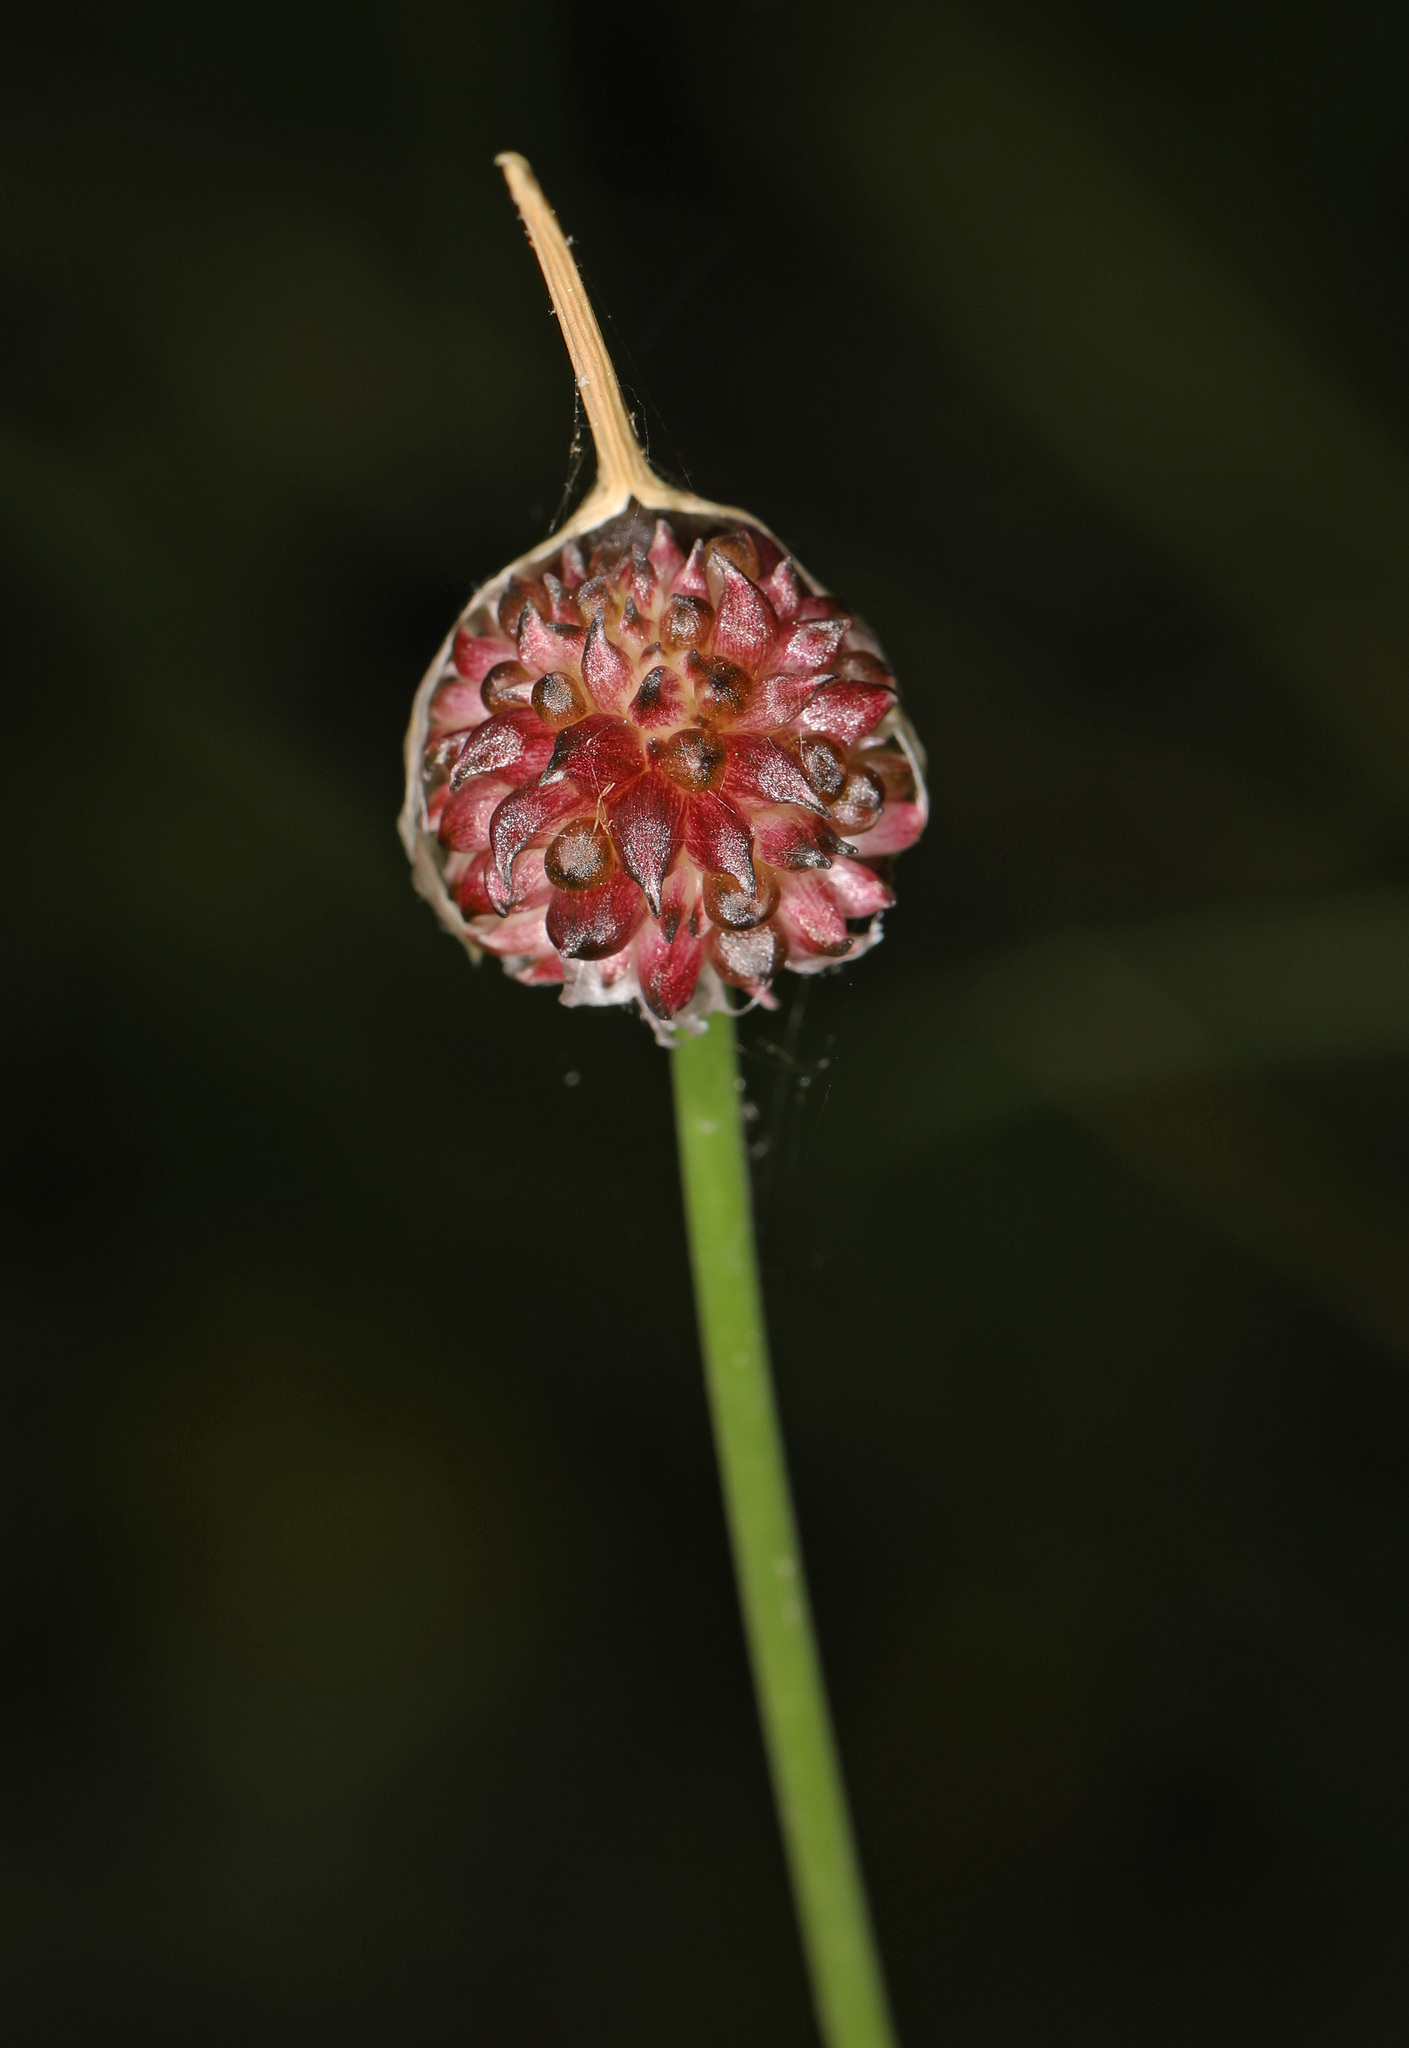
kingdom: Plantae
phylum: Tracheophyta
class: Liliopsida
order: Asparagales
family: Amaryllidaceae
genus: Allium
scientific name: Allium vineale
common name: Crow garlic
